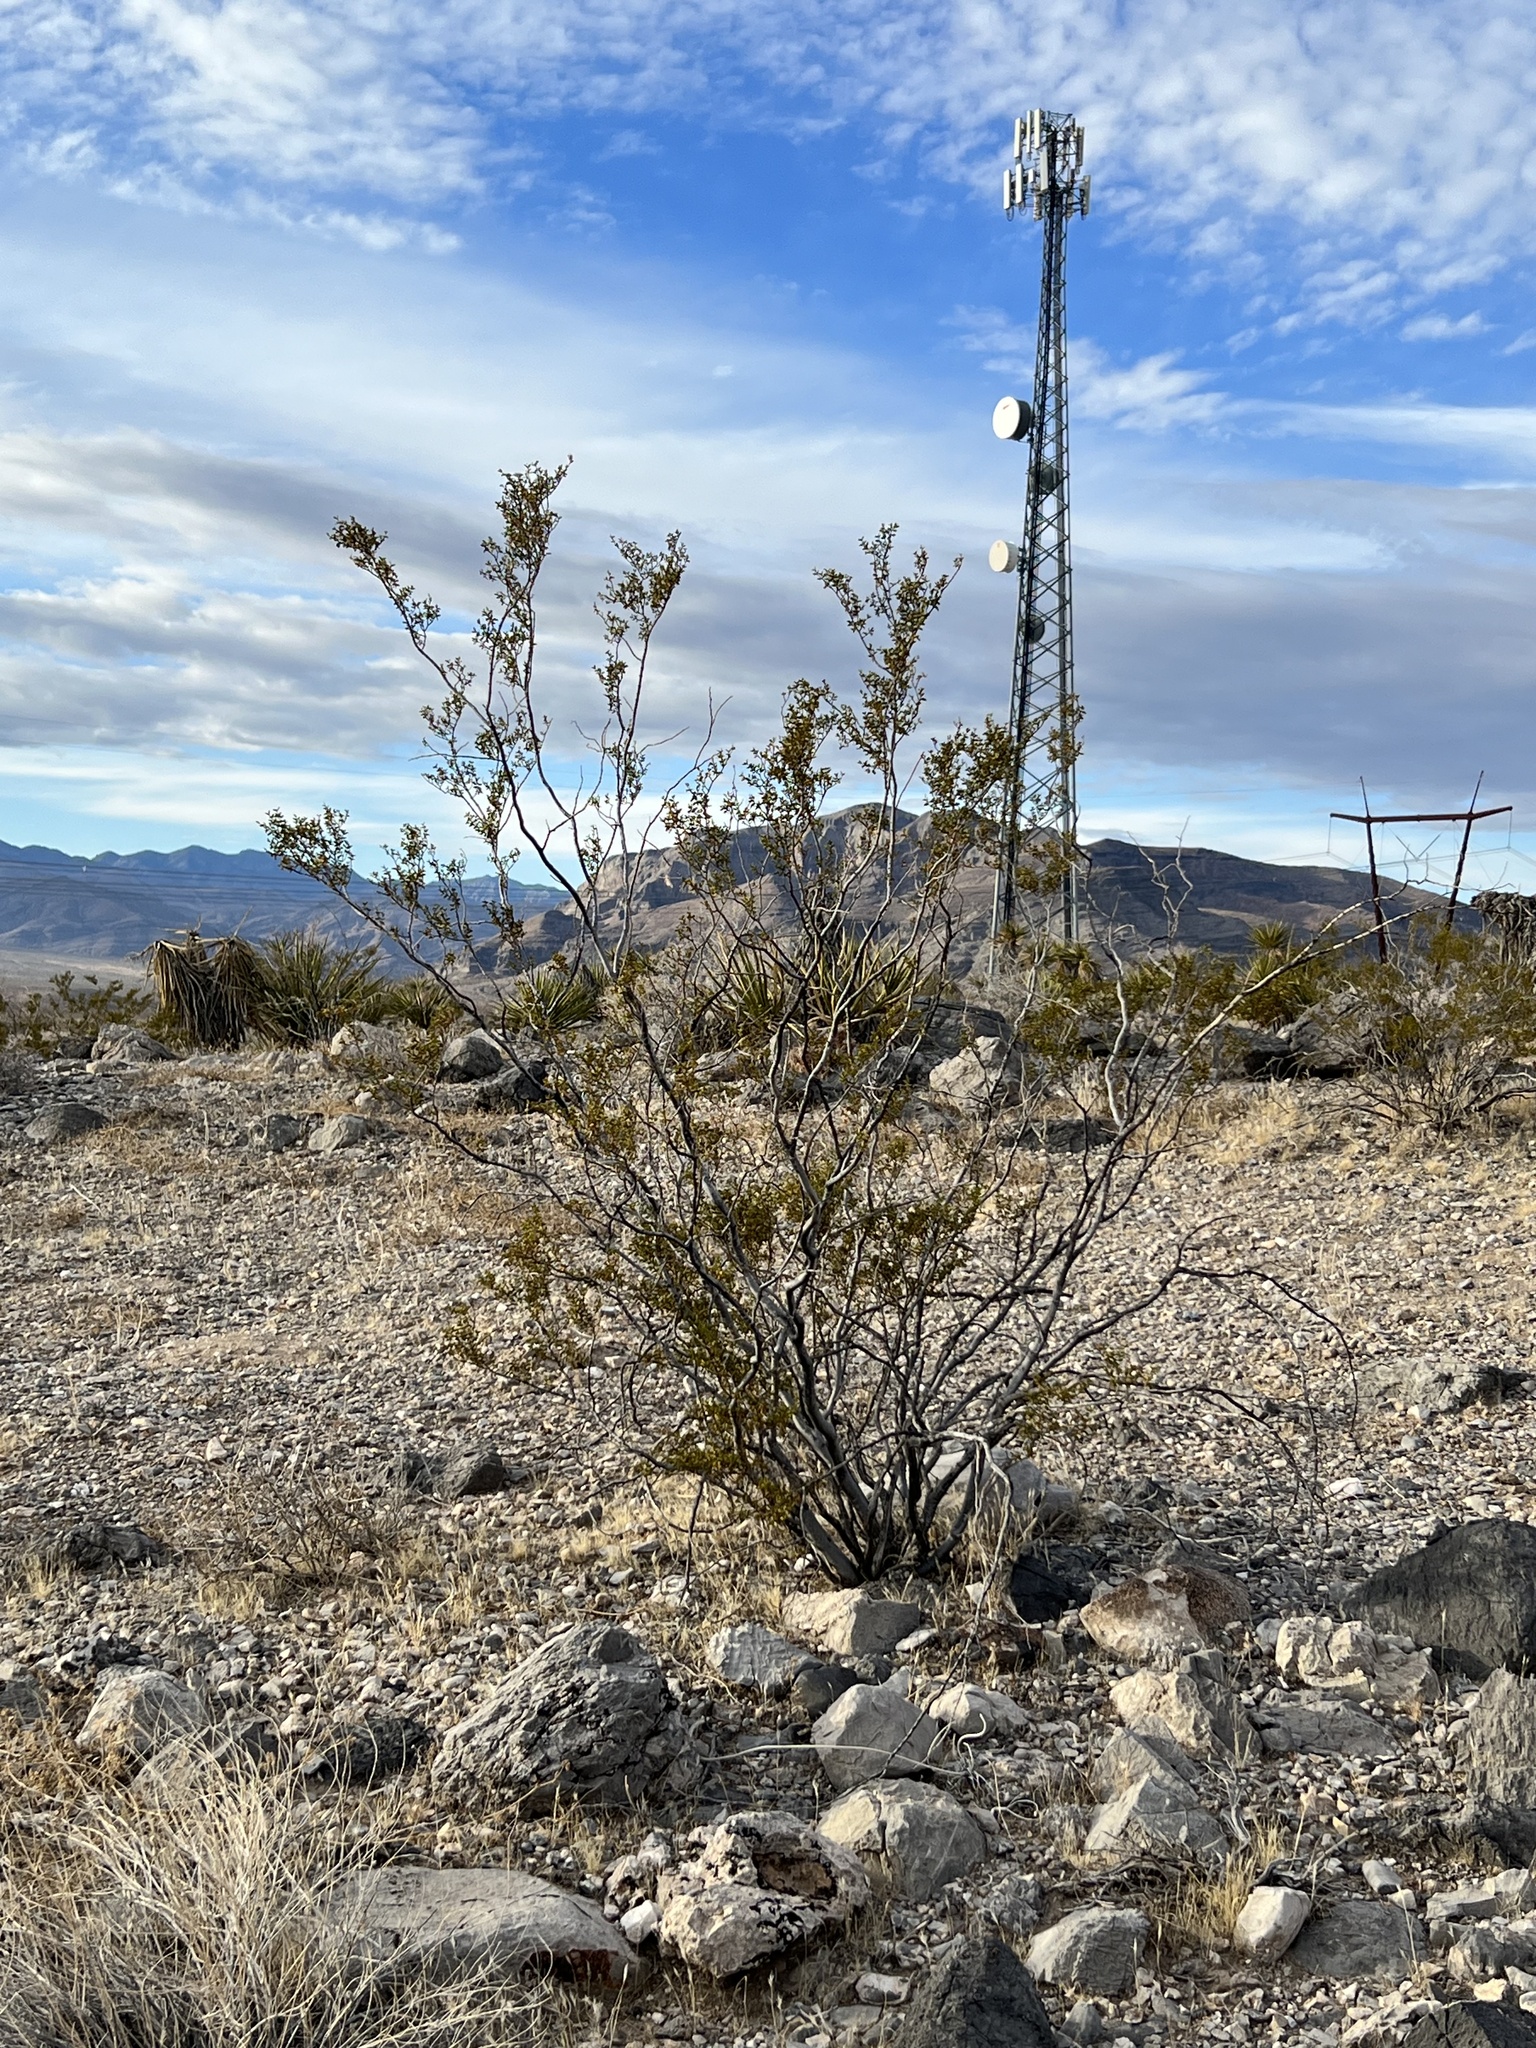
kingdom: Plantae
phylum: Tracheophyta
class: Magnoliopsida
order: Zygophyllales
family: Zygophyllaceae
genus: Larrea
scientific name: Larrea tridentata
